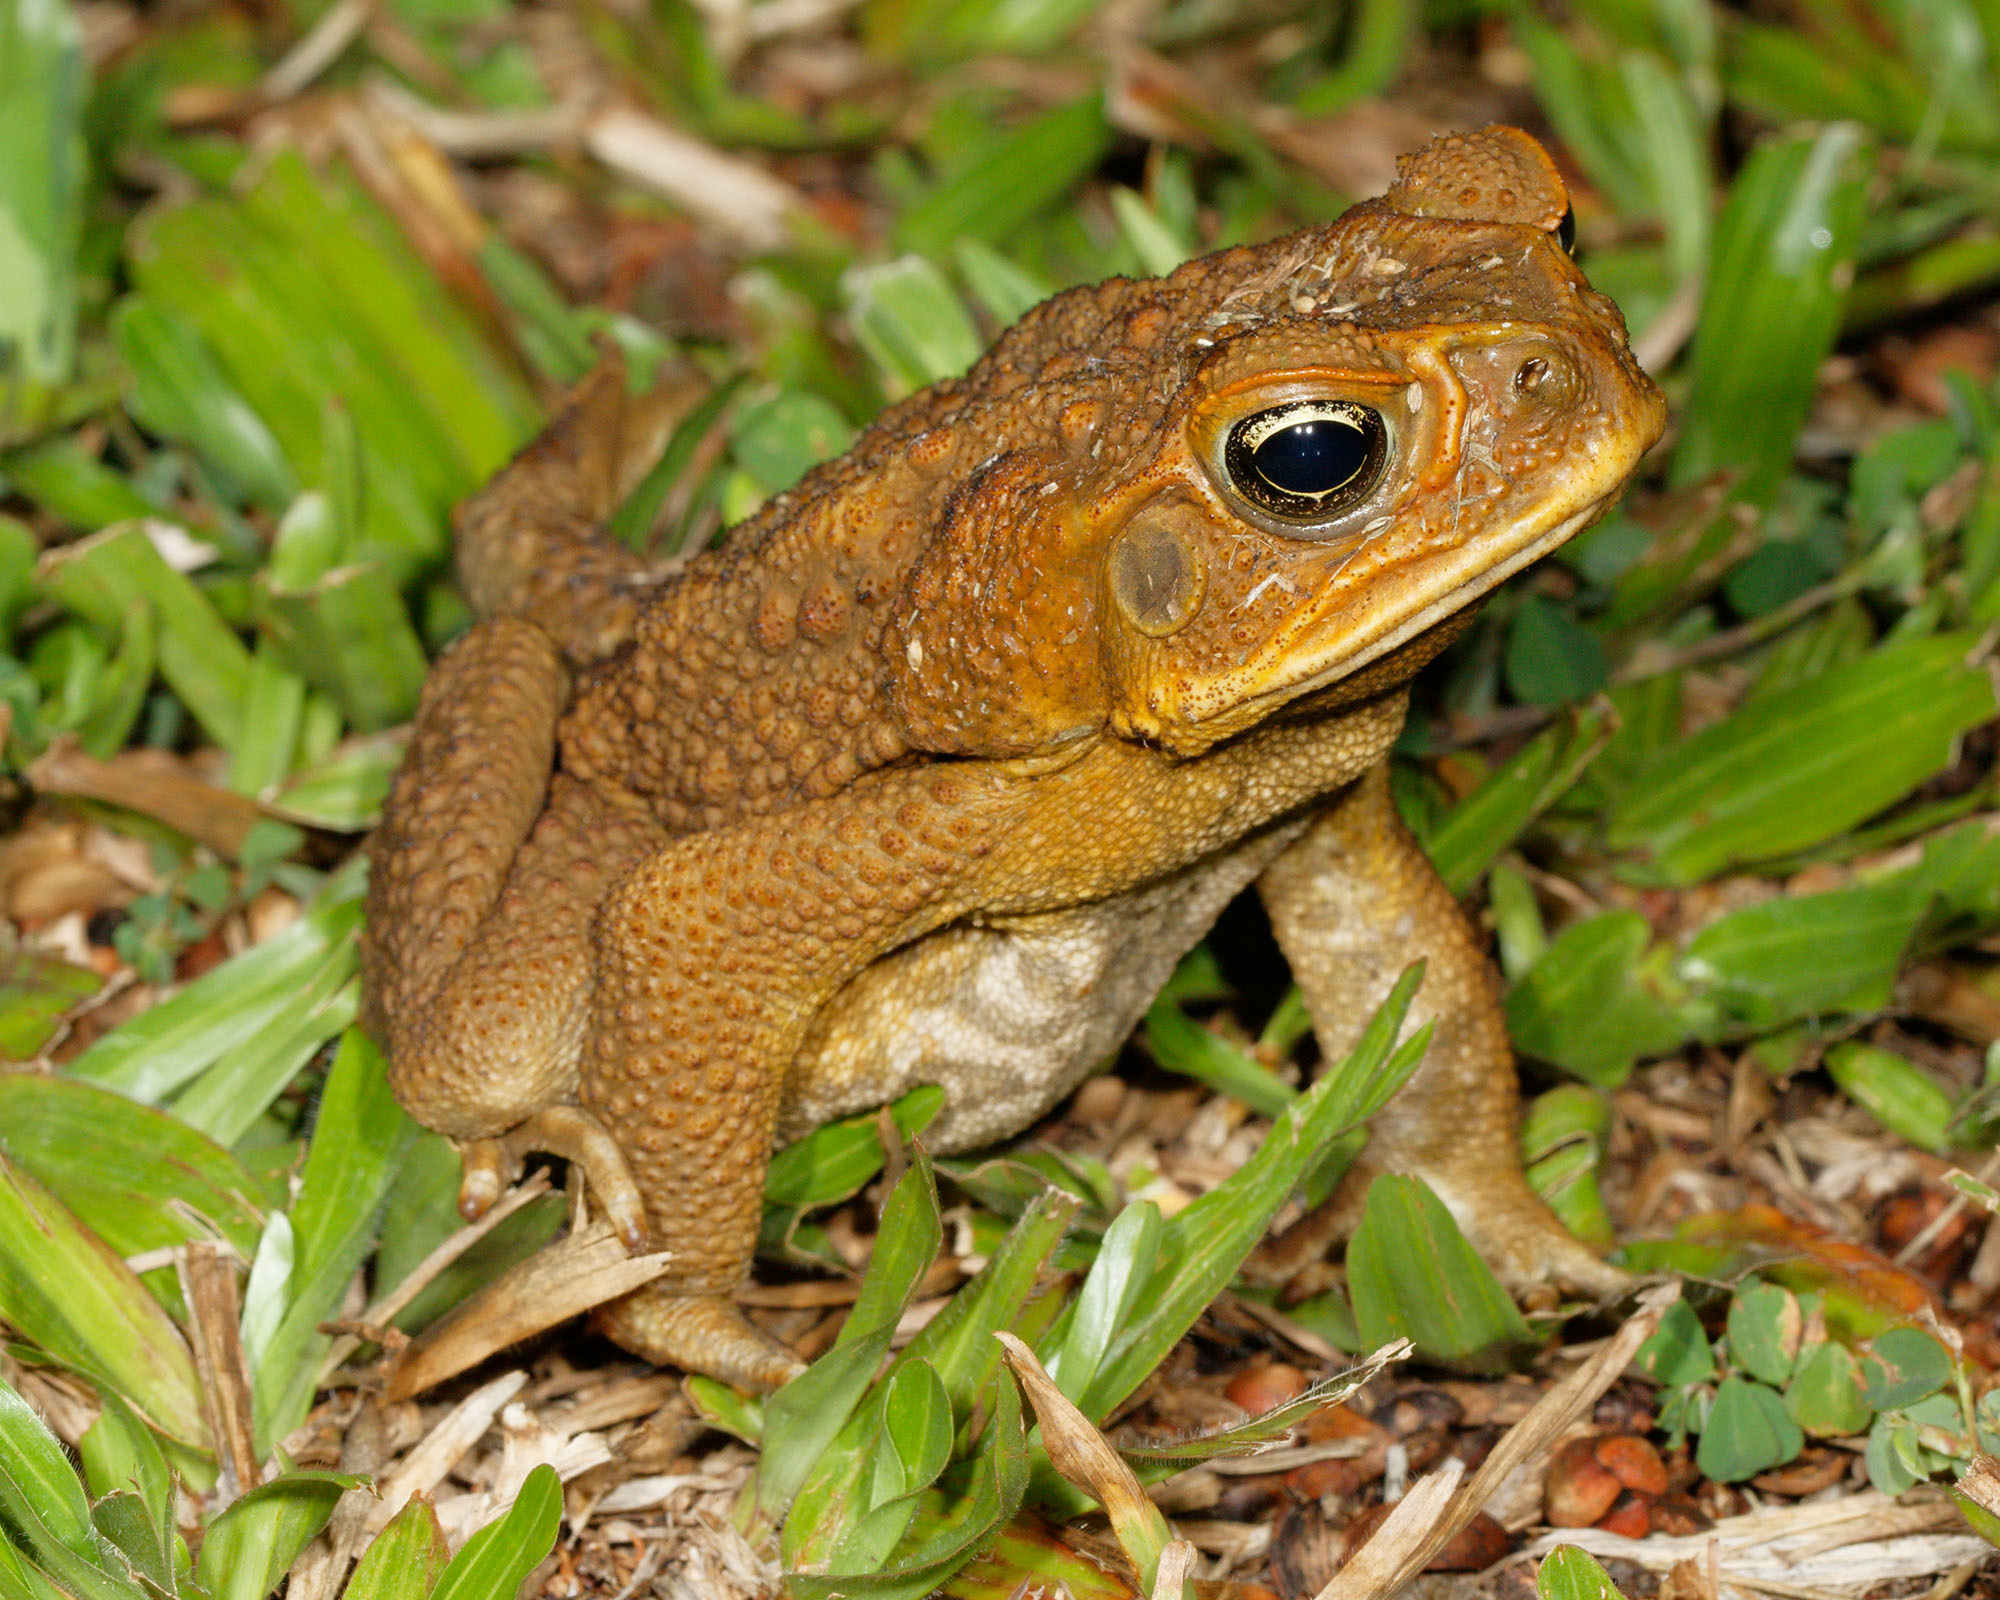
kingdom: Animalia
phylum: Chordata
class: Amphibia
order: Anura
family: Bufonidae
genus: Rhinella
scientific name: Rhinella marina
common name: Cane toad
